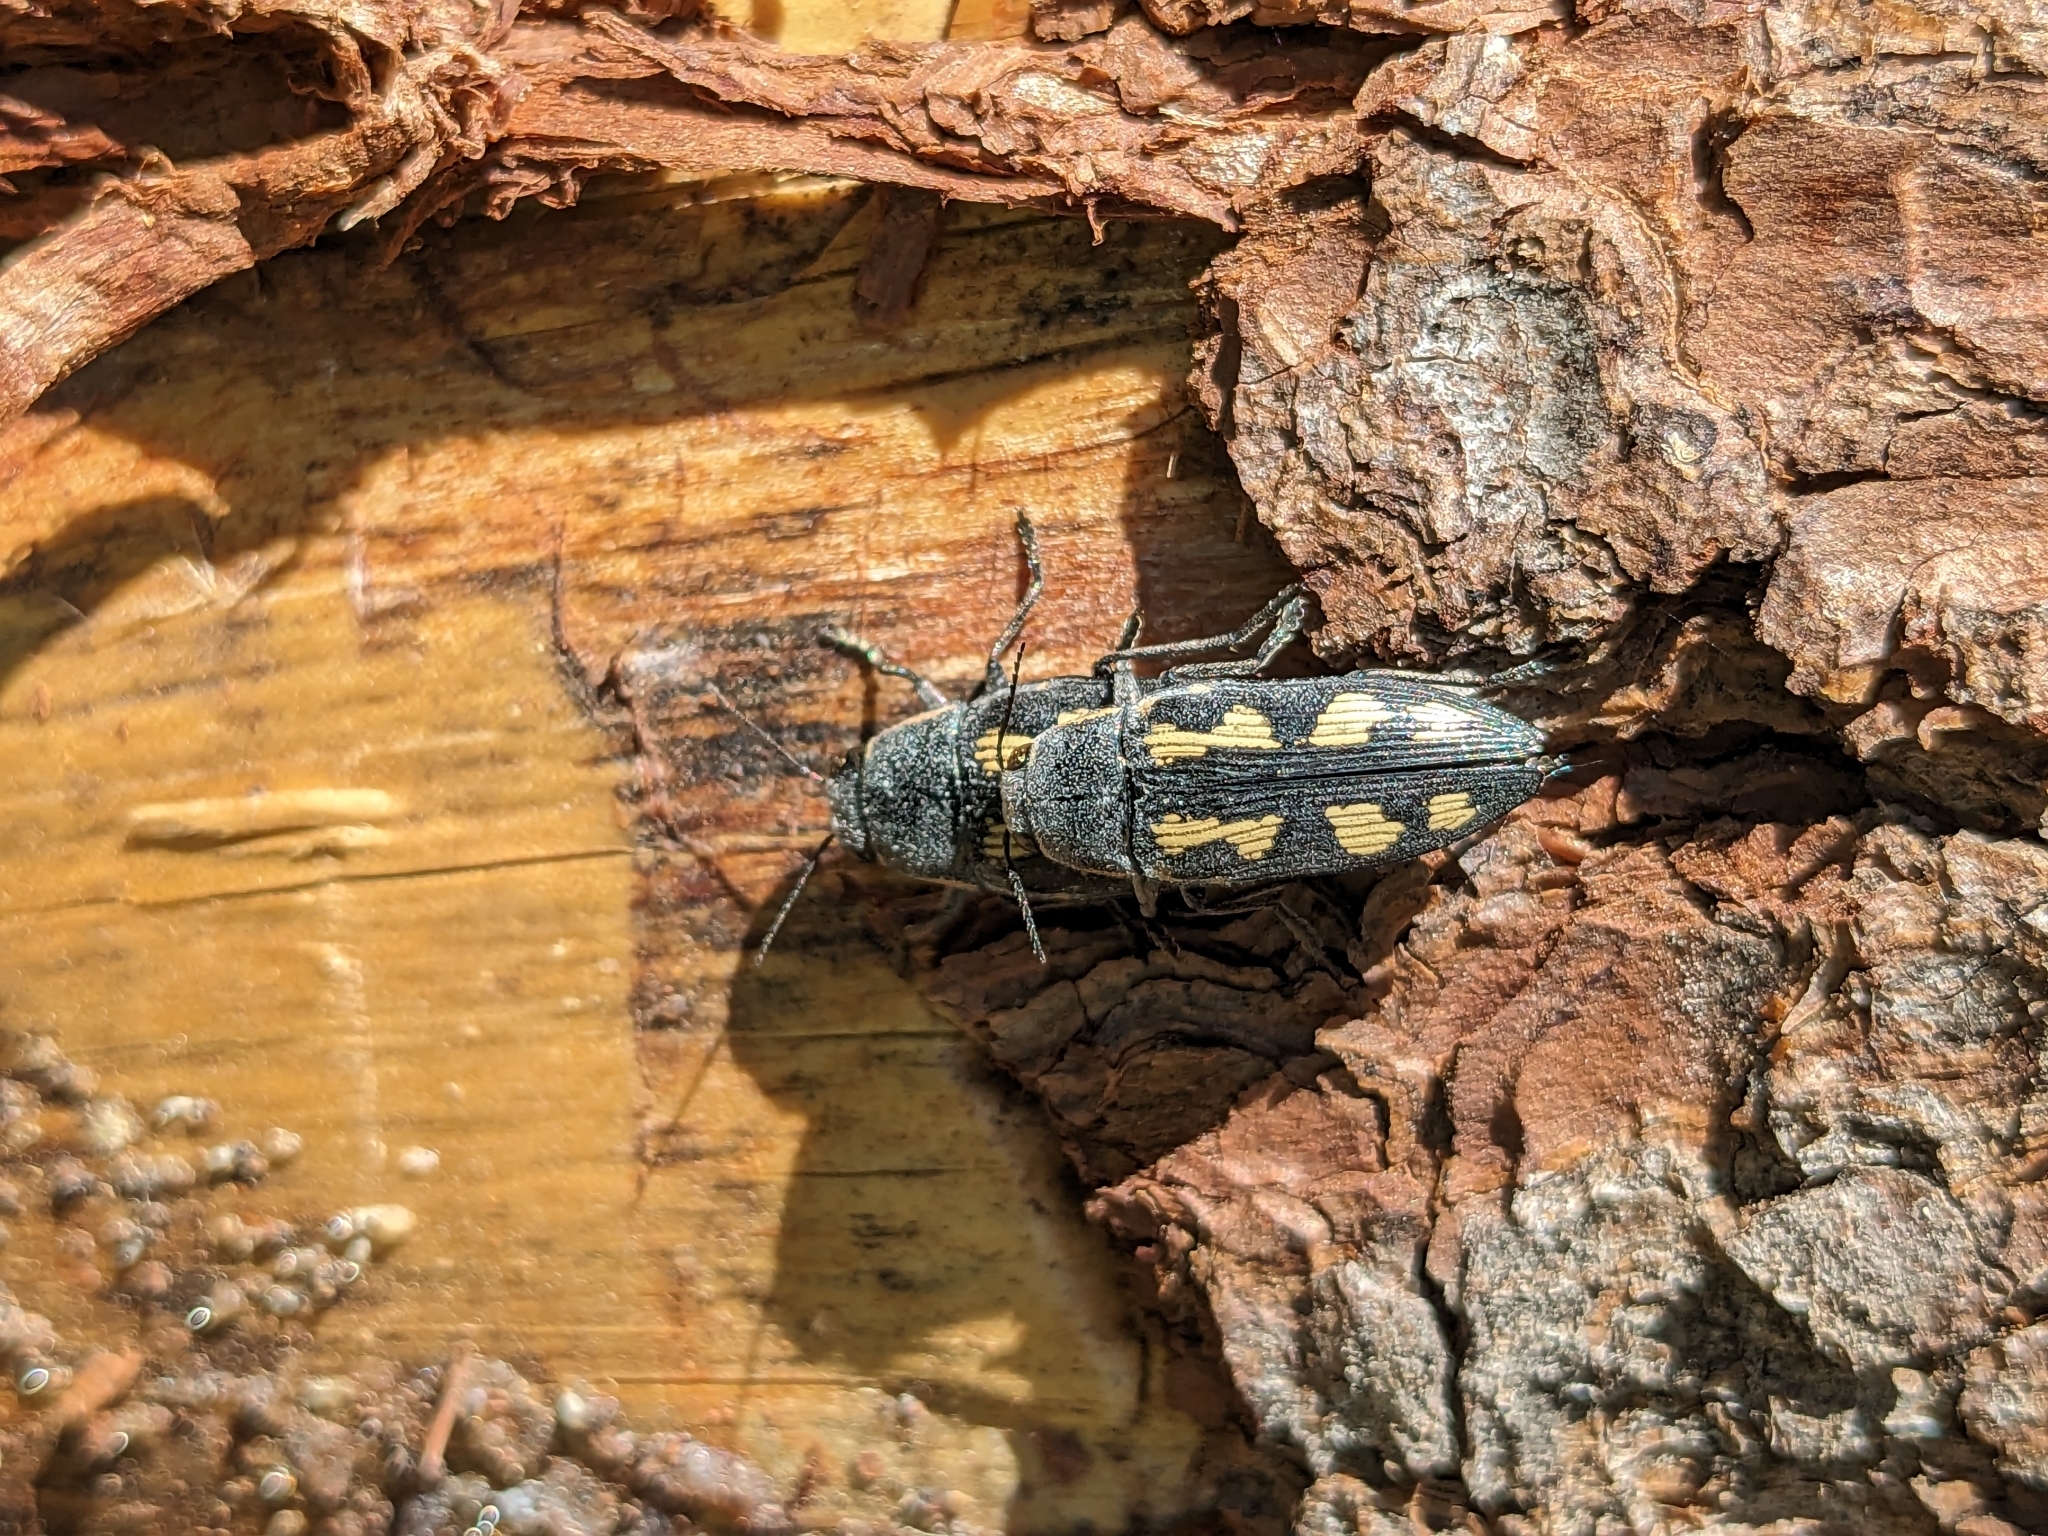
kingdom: Animalia
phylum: Arthropoda
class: Insecta
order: Coleoptera
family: Buprestidae
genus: Buprestis
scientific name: Buprestis novemmaculata
